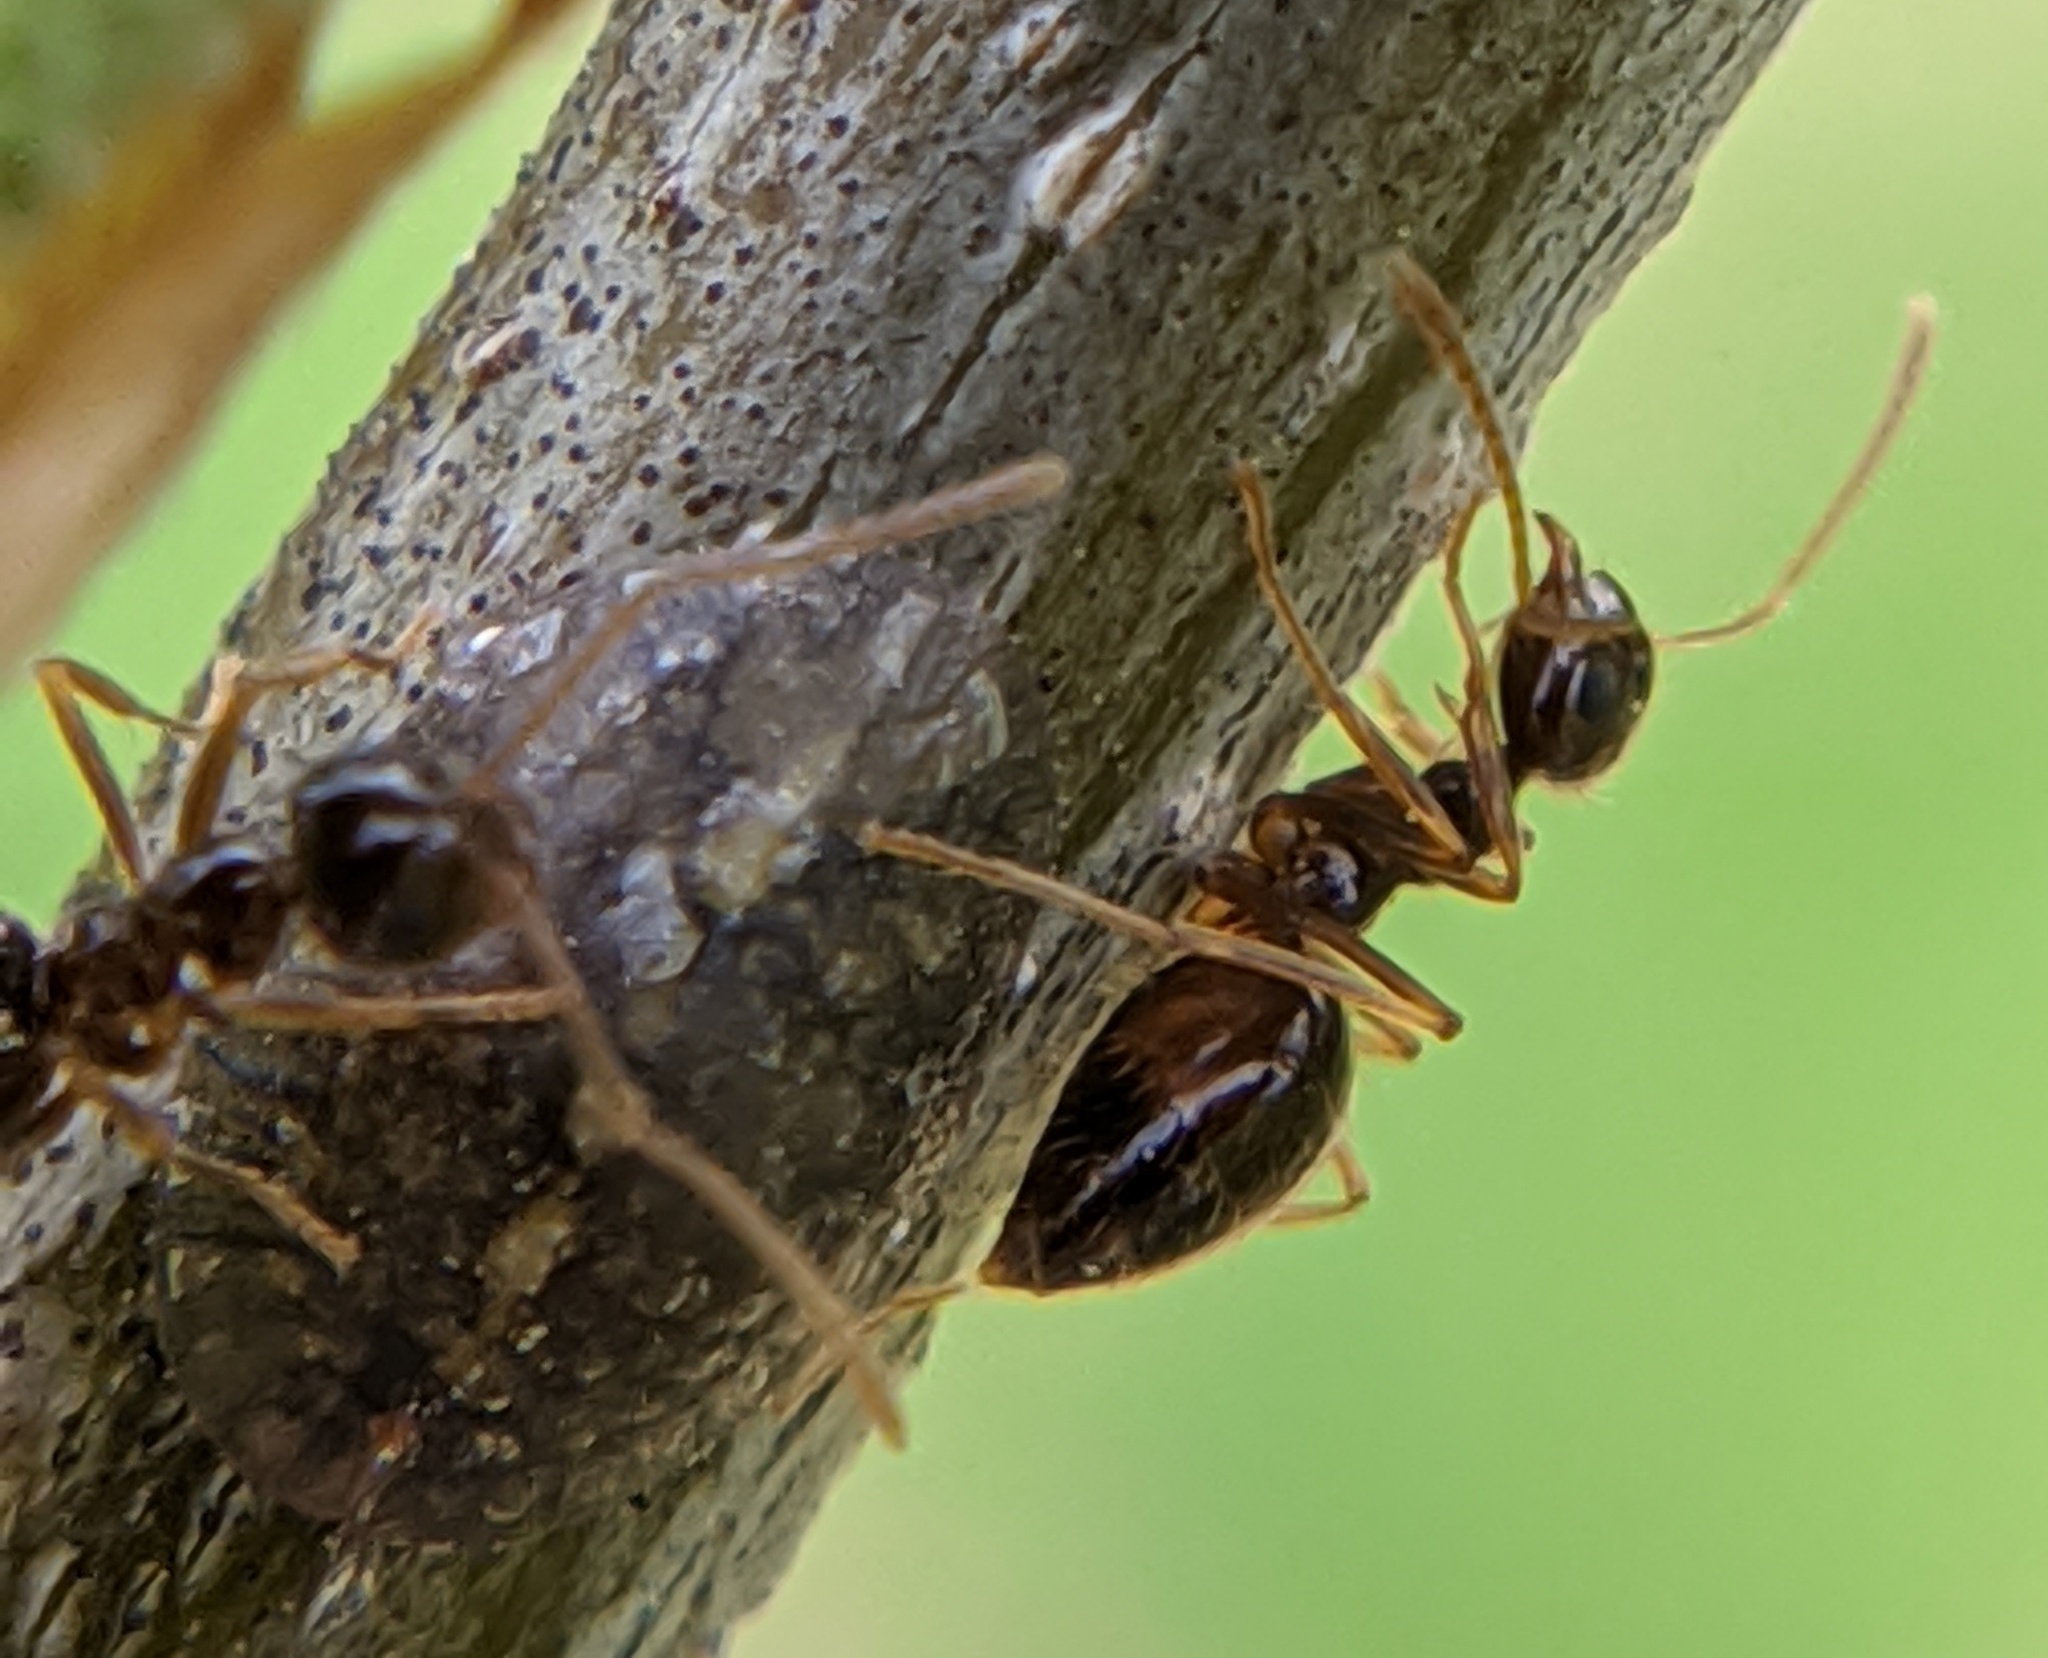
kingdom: Animalia
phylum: Arthropoda
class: Insecta
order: Hymenoptera
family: Formicidae
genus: Prenolepis
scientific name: Prenolepis imparis
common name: Small honey ant
